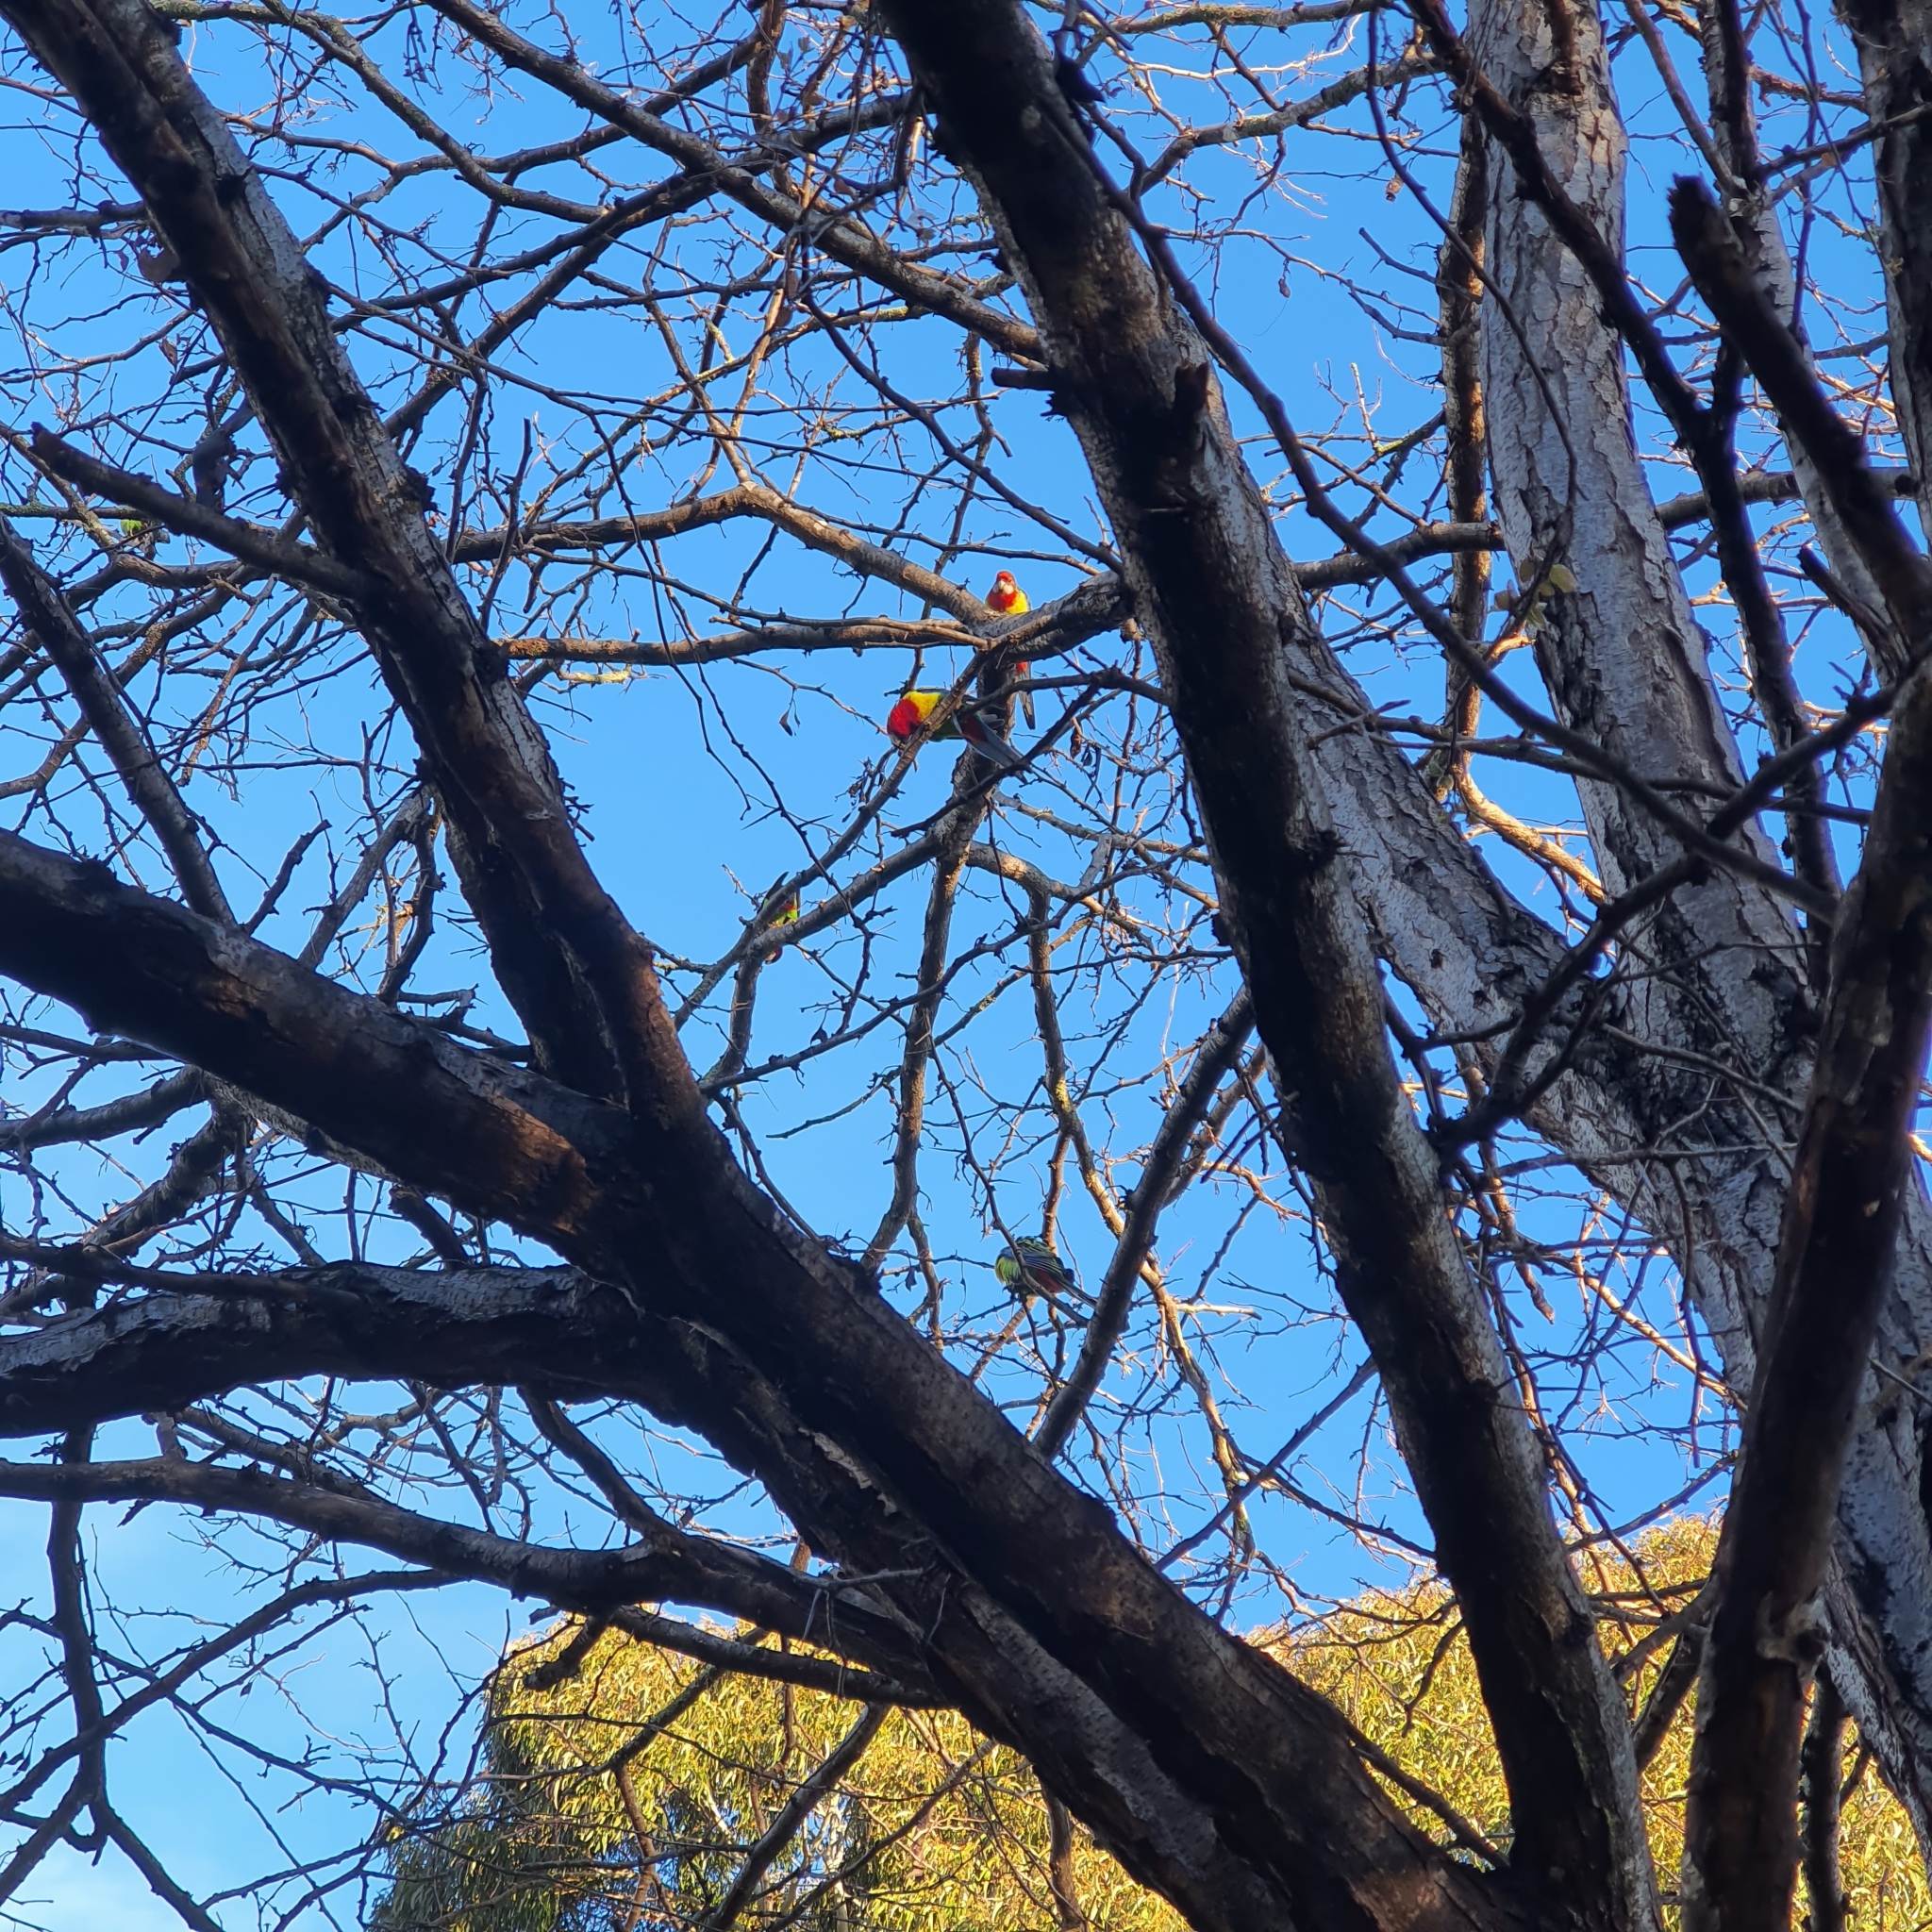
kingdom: Animalia
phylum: Chordata
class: Aves
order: Psittaciformes
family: Psittacidae
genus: Platycercus
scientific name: Platycercus eximius
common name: Eastern rosella
